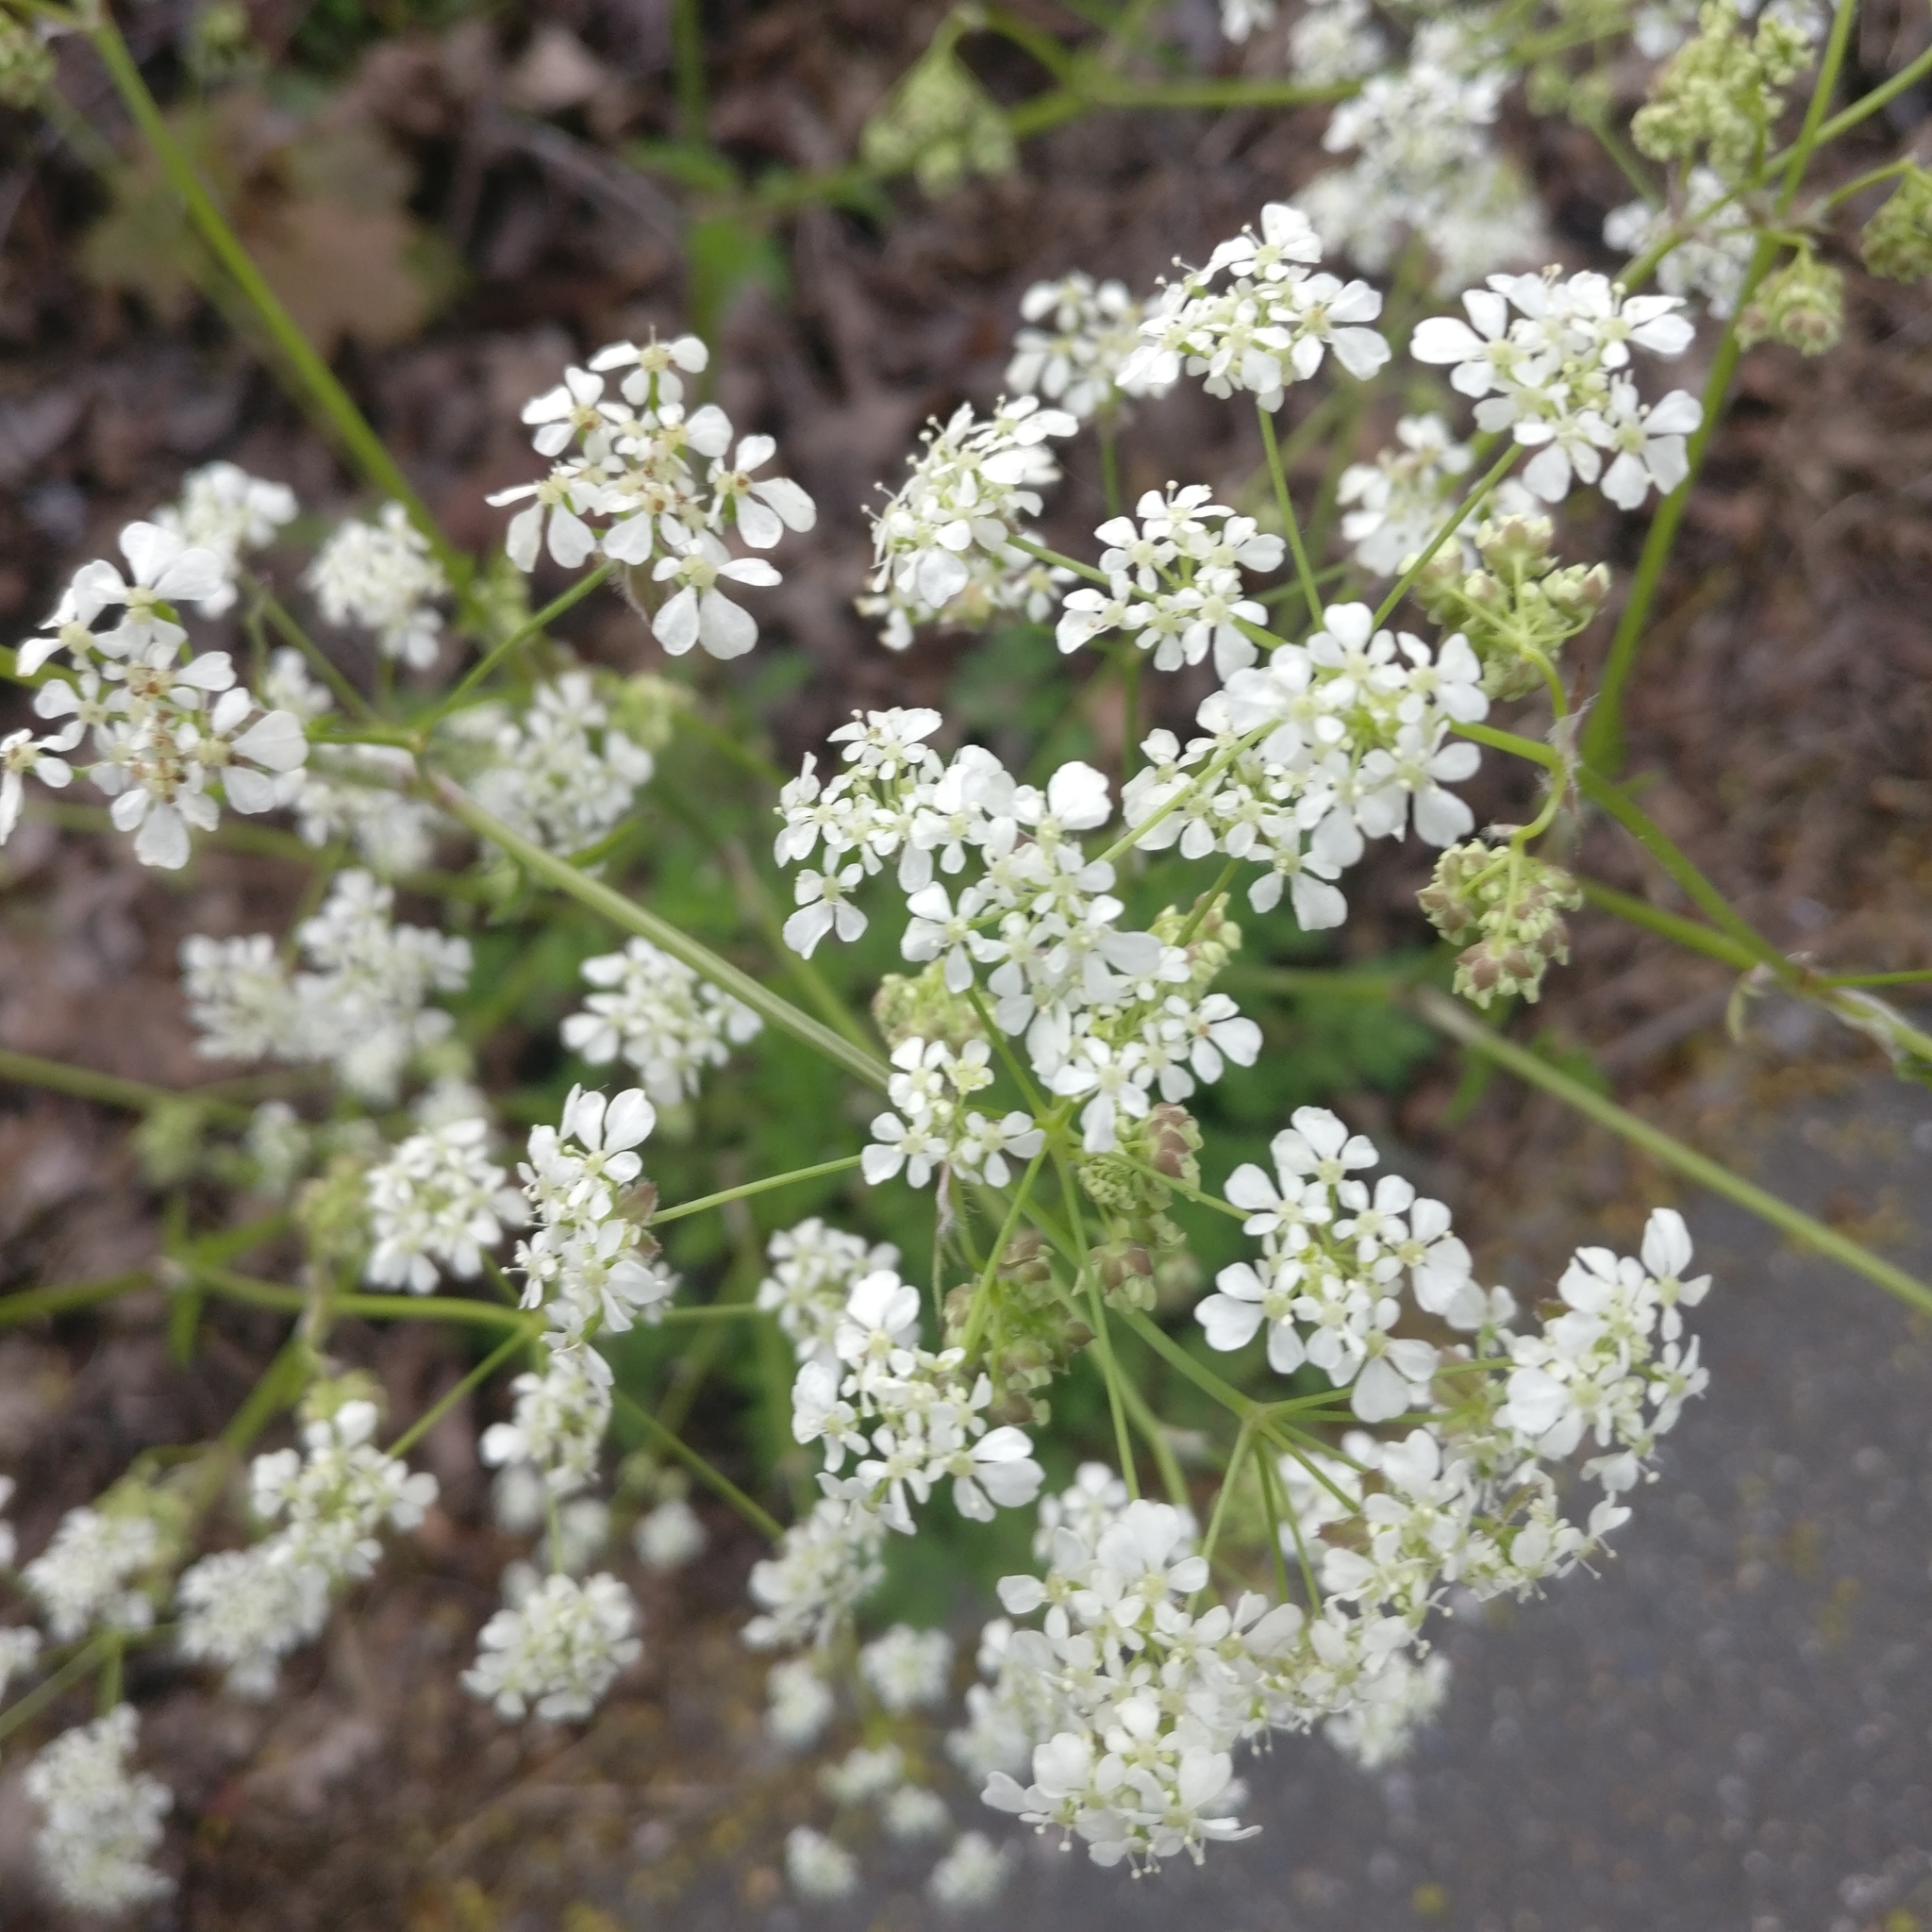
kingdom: Plantae
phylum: Tracheophyta
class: Magnoliopsida
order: Apiales
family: Apiaceae
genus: Anthriscus
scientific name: Anthriscus sylvestris
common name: Cow parsley
